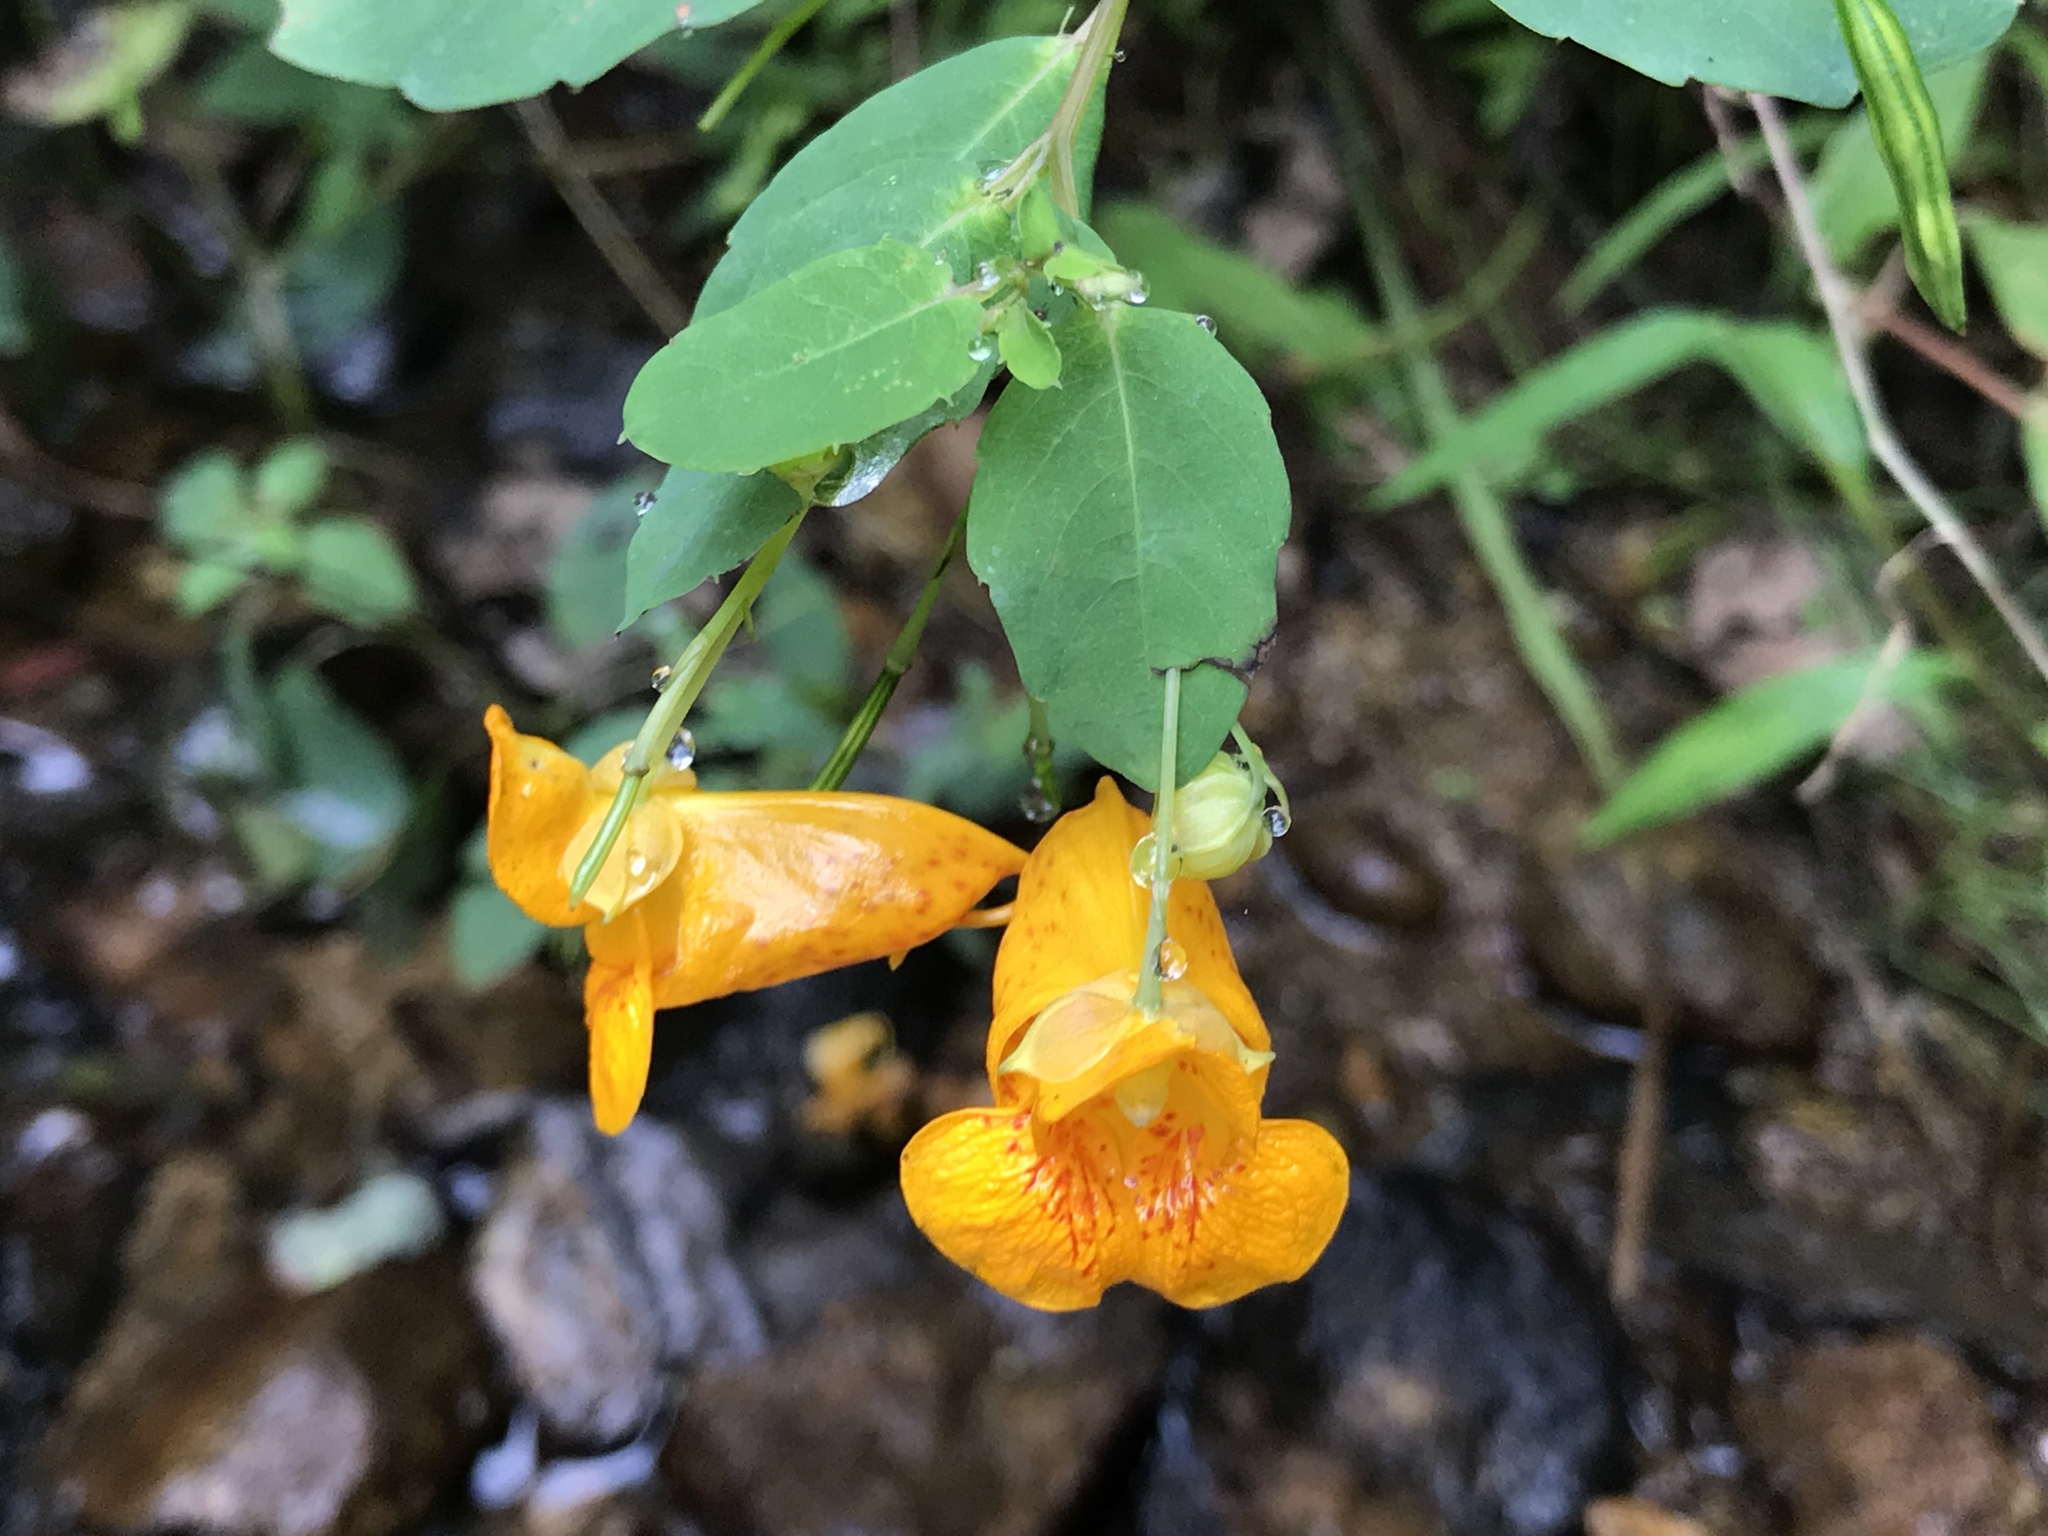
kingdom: Plantae
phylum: Tracheophyta
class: Magnoliopsida
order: Ericales
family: Balsaminaceae
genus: Impatiens
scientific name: Impatiens capensis
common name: Orange balsam
